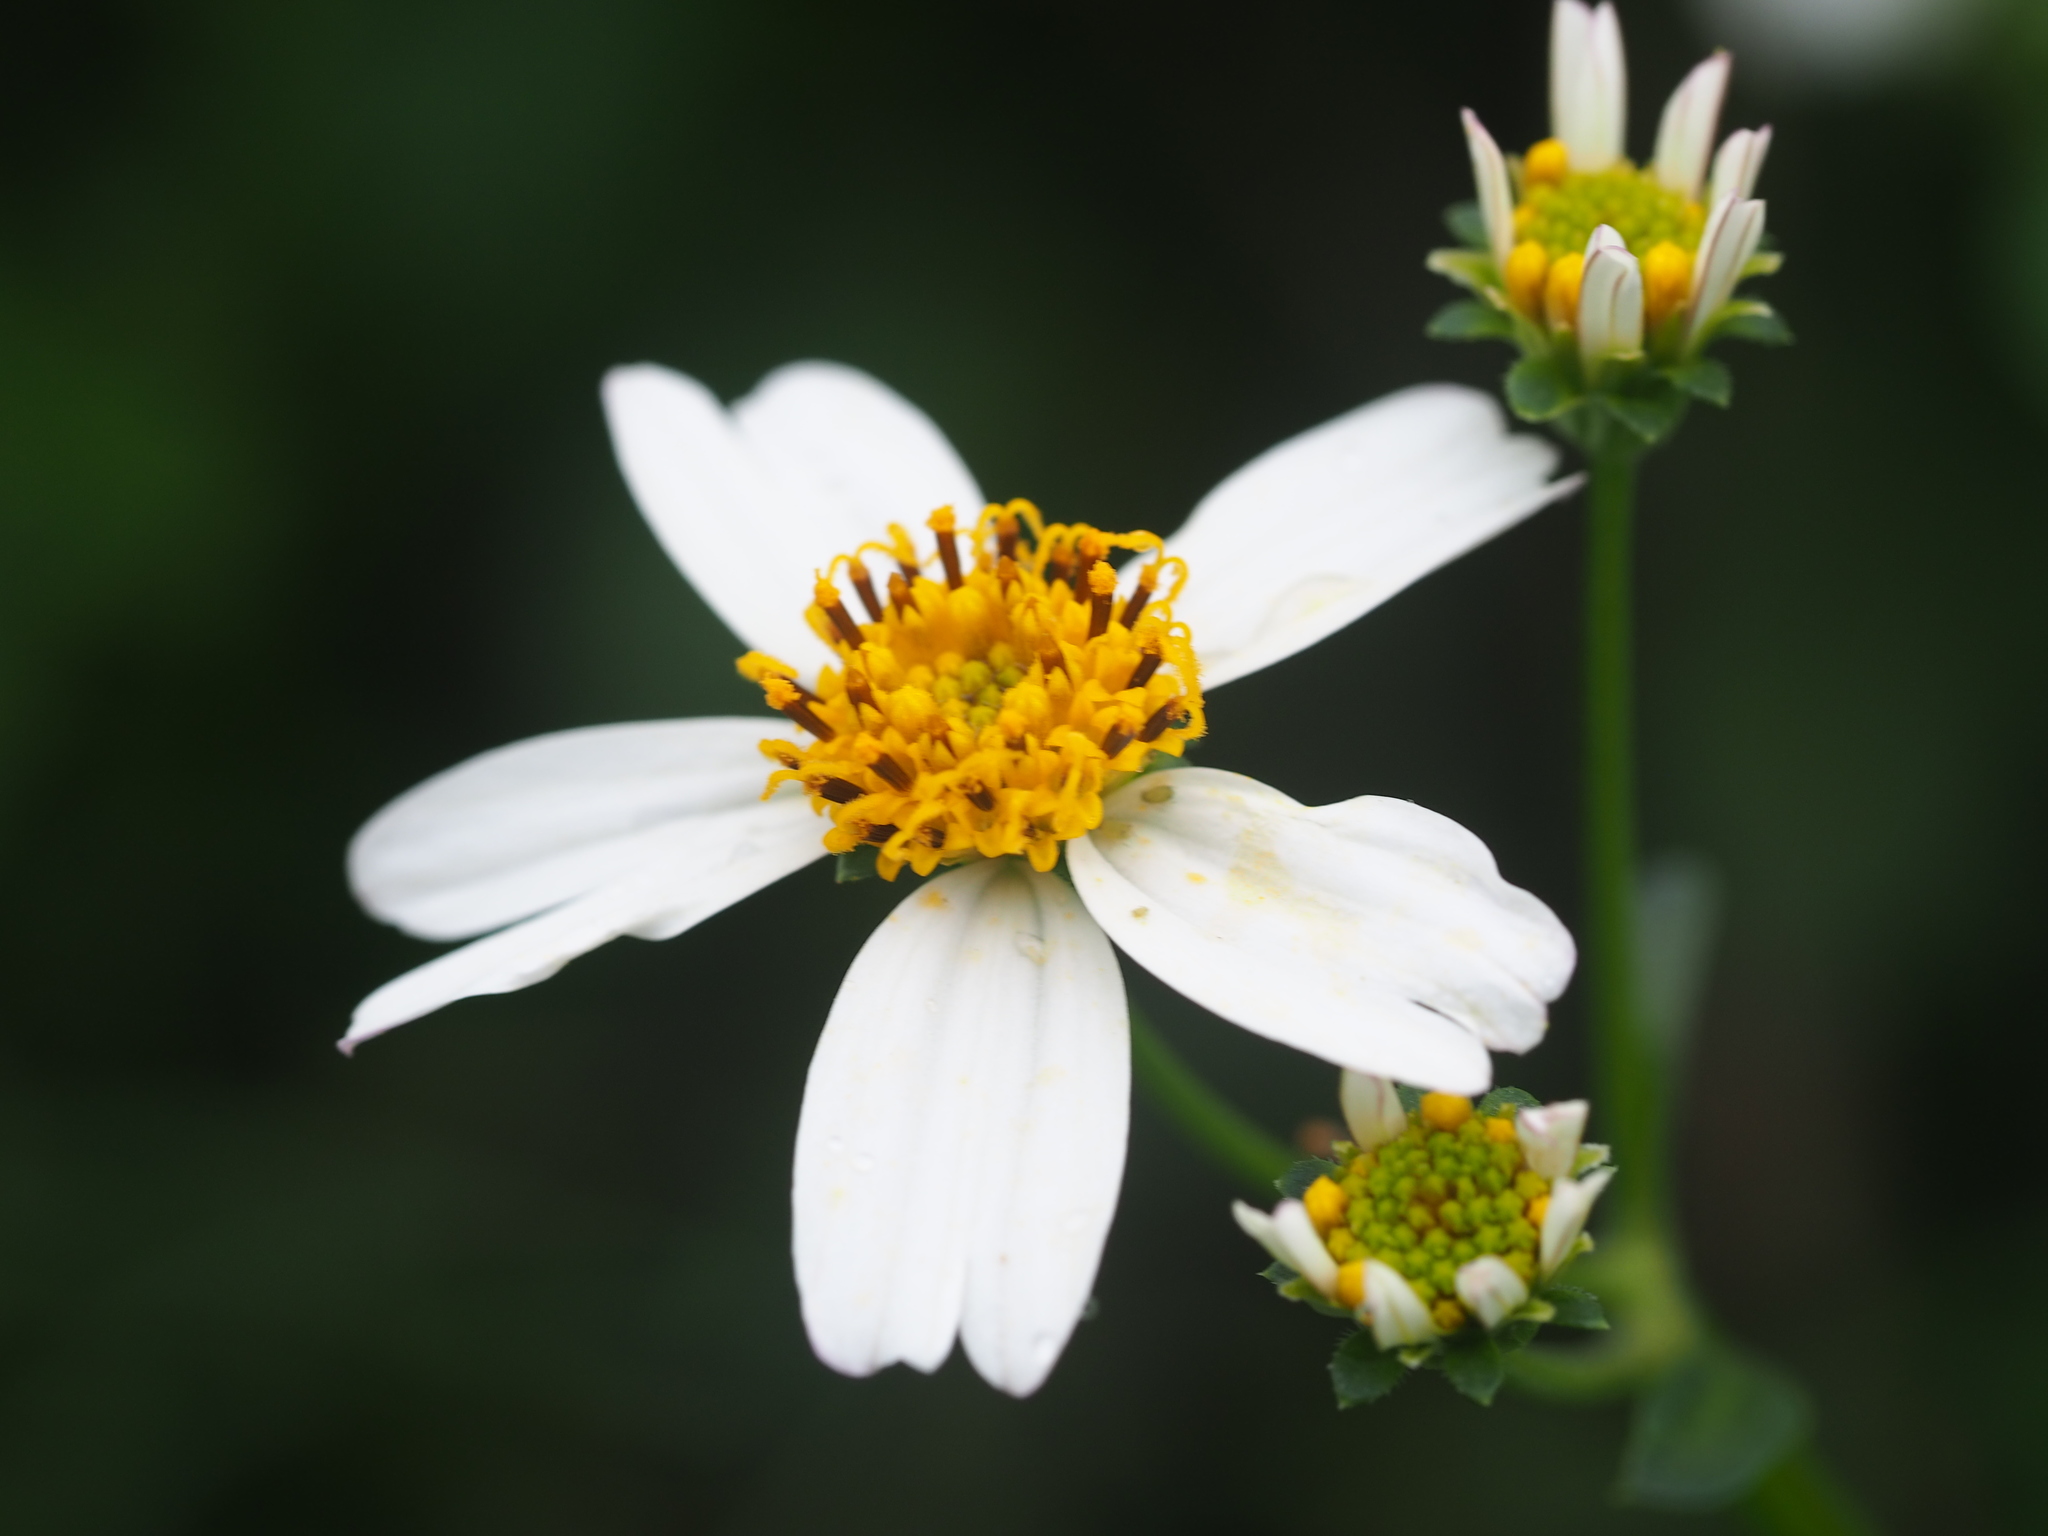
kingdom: Plantae
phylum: Tracheophyta
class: Magnoliopsida
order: Asterales
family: Asteraceae
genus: Bidens
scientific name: Bidens alba
